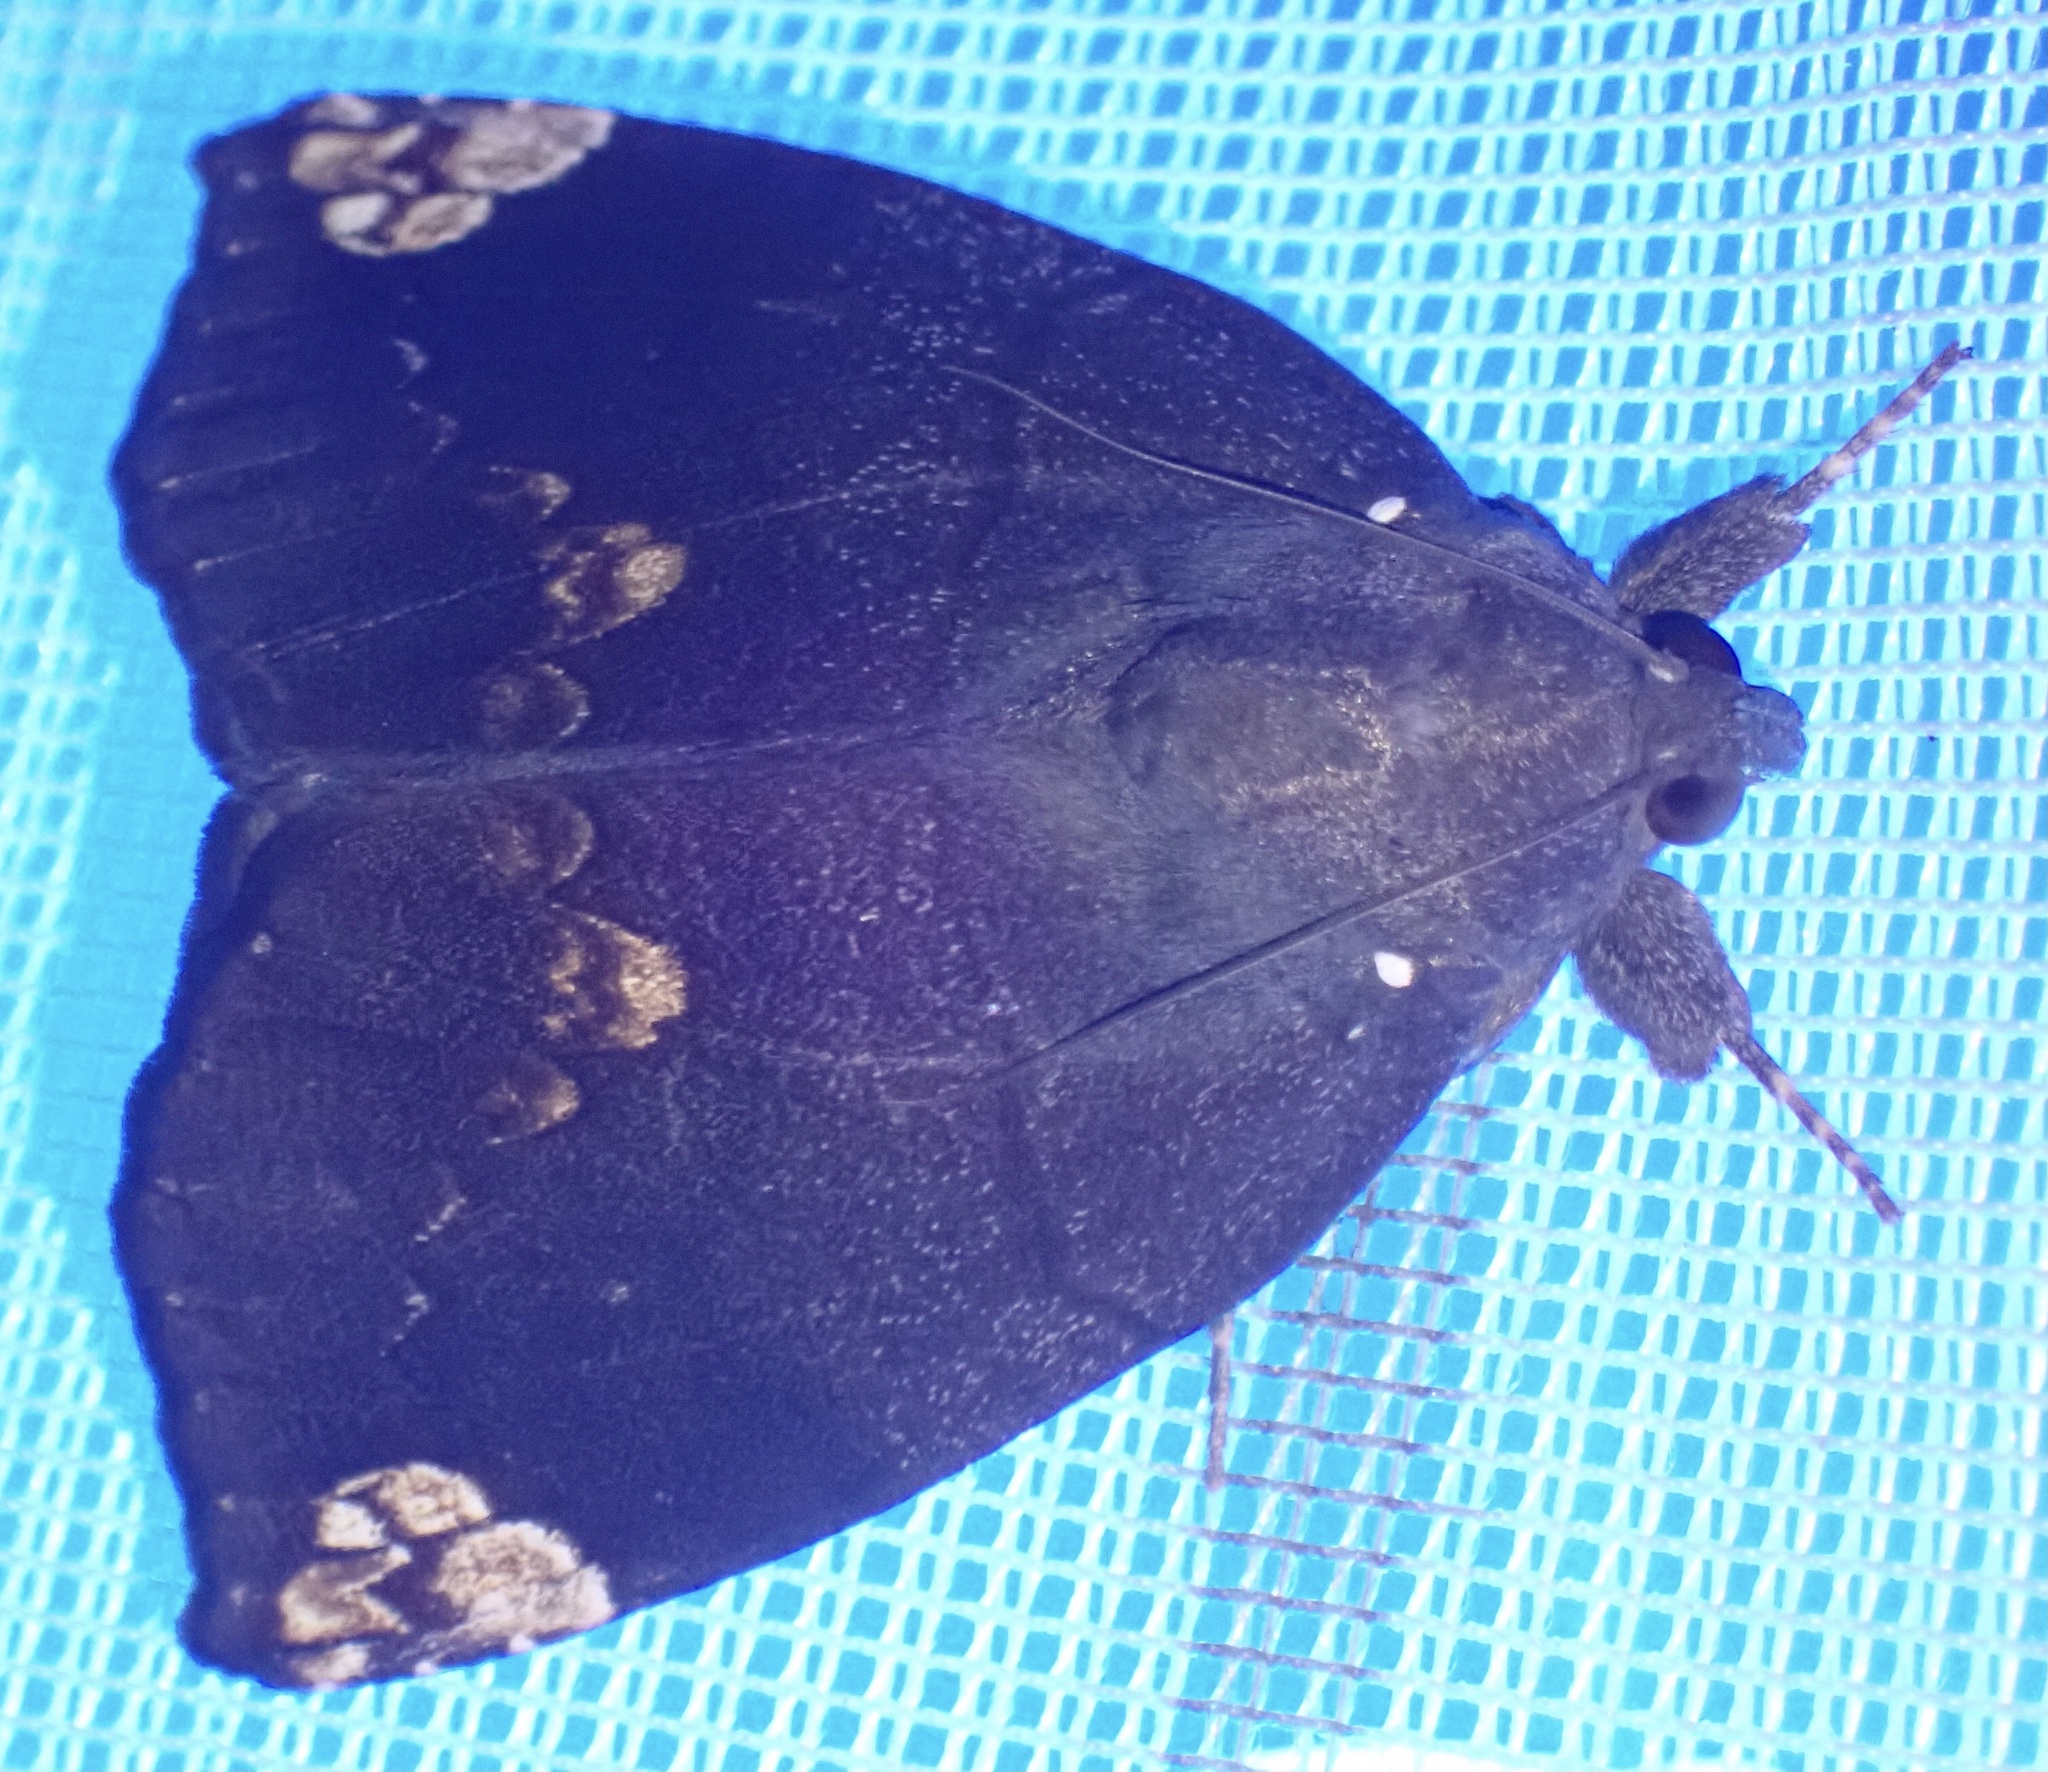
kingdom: Animalia
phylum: Arthropoda
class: Insecta
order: Lepidoptera
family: Erebidae
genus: Achaea
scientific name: Achaea illustrata
